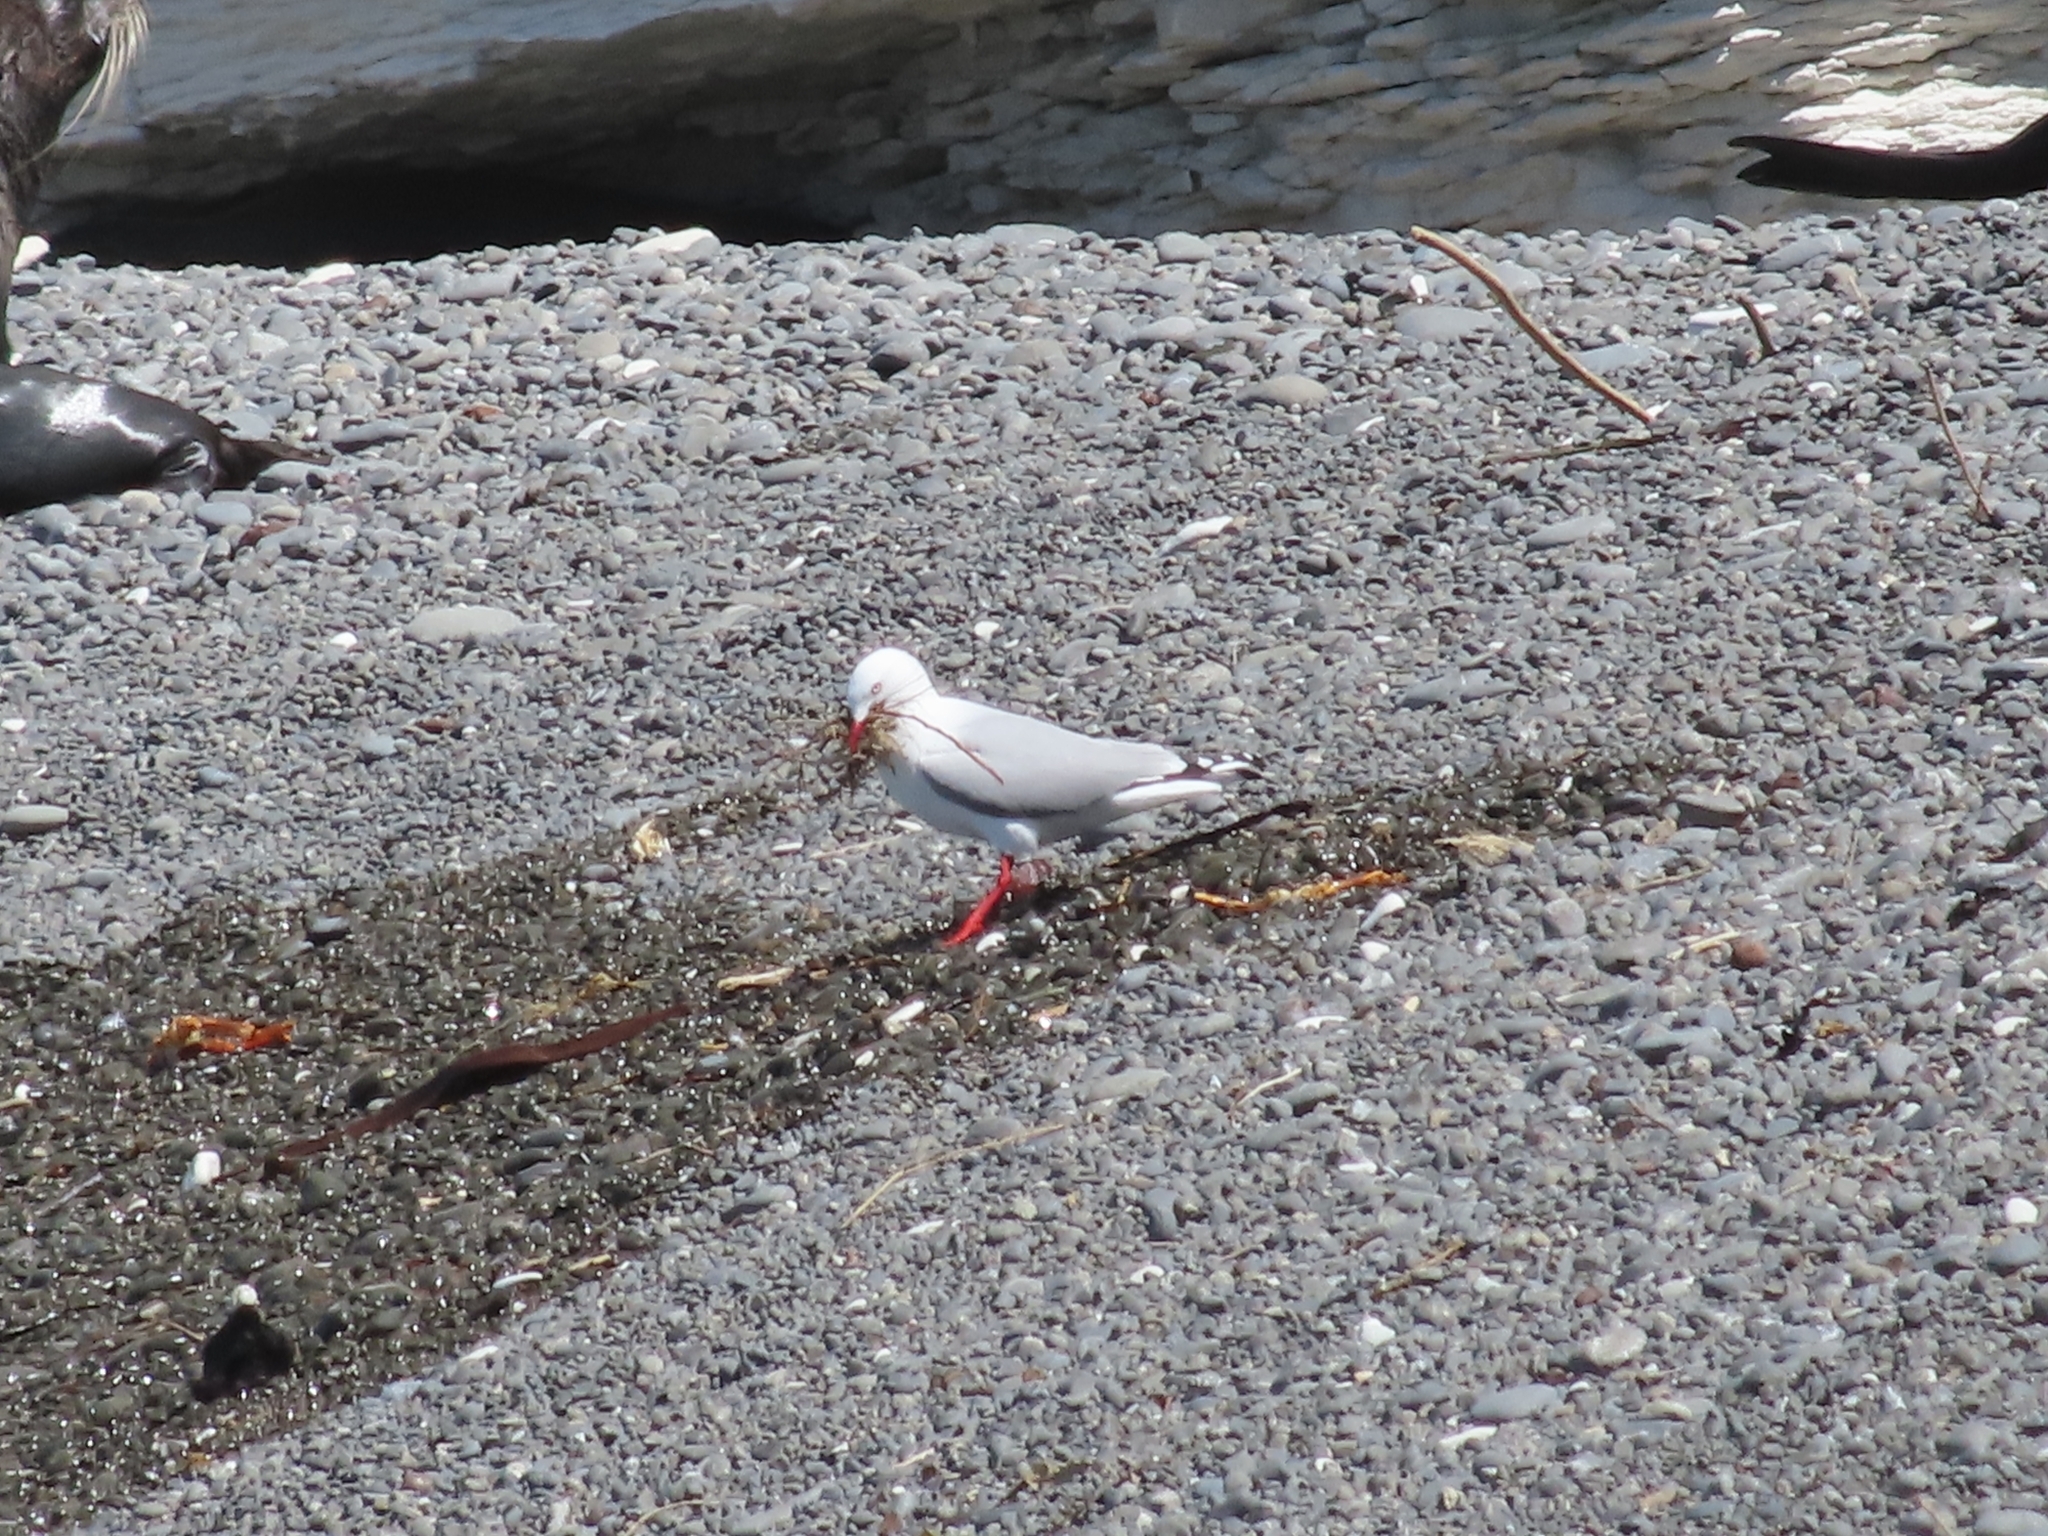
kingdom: Animalia
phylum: Chordata
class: Aves
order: Charadriiformes
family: Laridae
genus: Chroicocephalus
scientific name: Chroicocephalus novaehollandiae
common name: Silver gull
